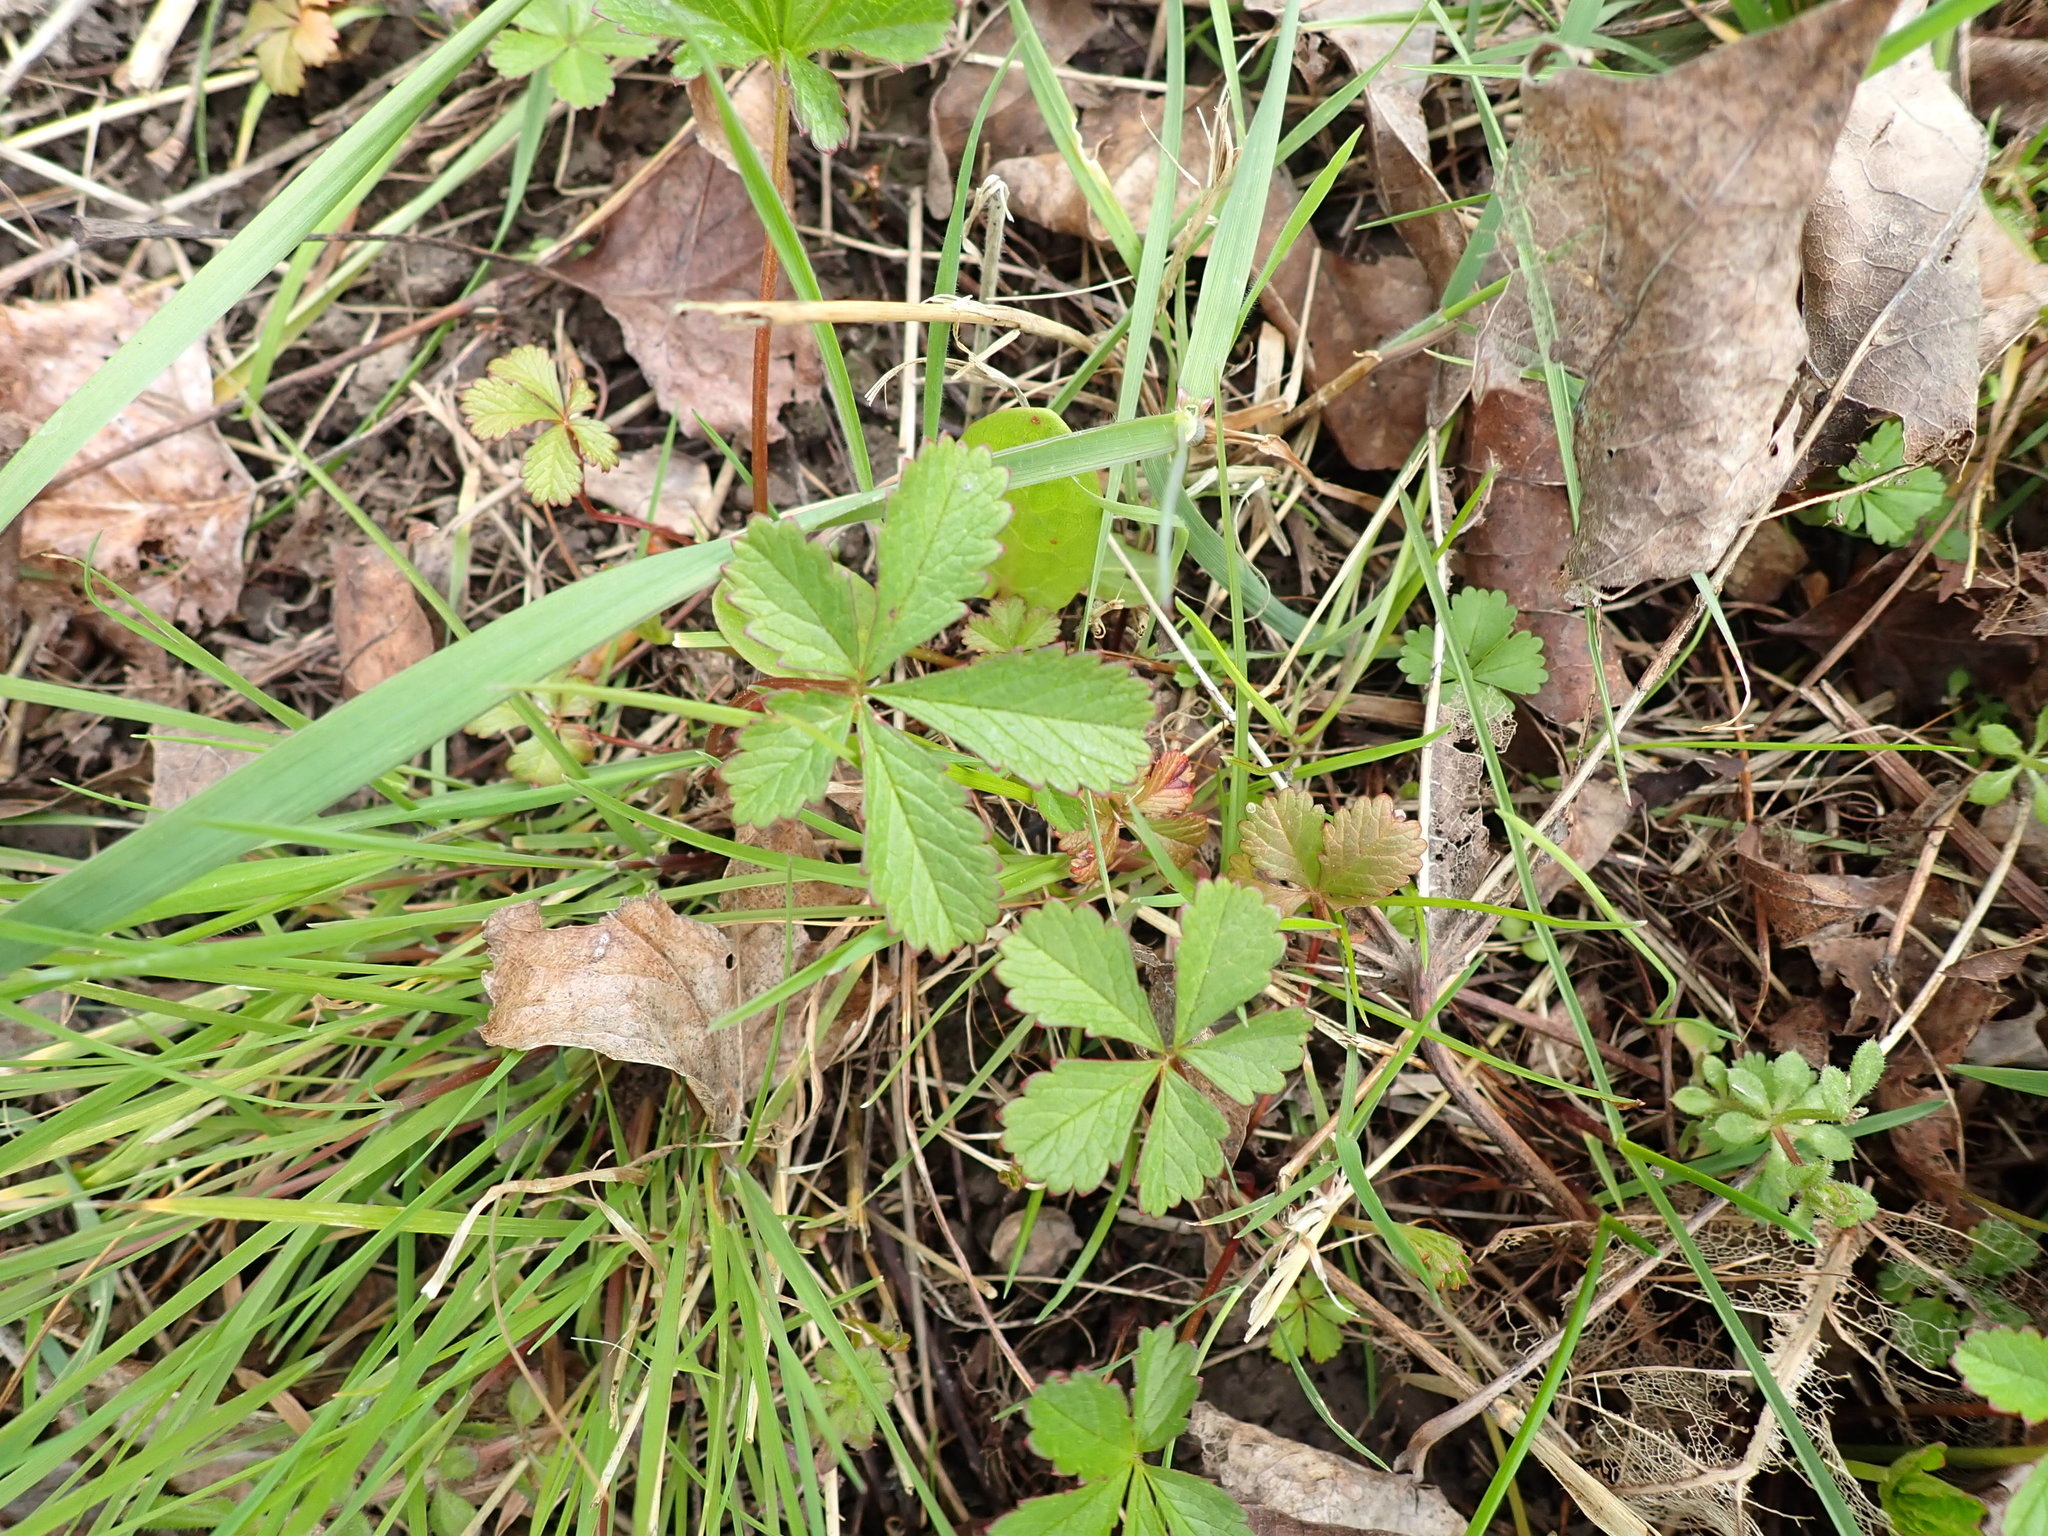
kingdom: Plantae
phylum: Tracheophyta
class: Magnoliopsida
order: Rosales
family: Rosaceae
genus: Potentilla
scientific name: Potentilla reptans
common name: Creeping cinquefoil
